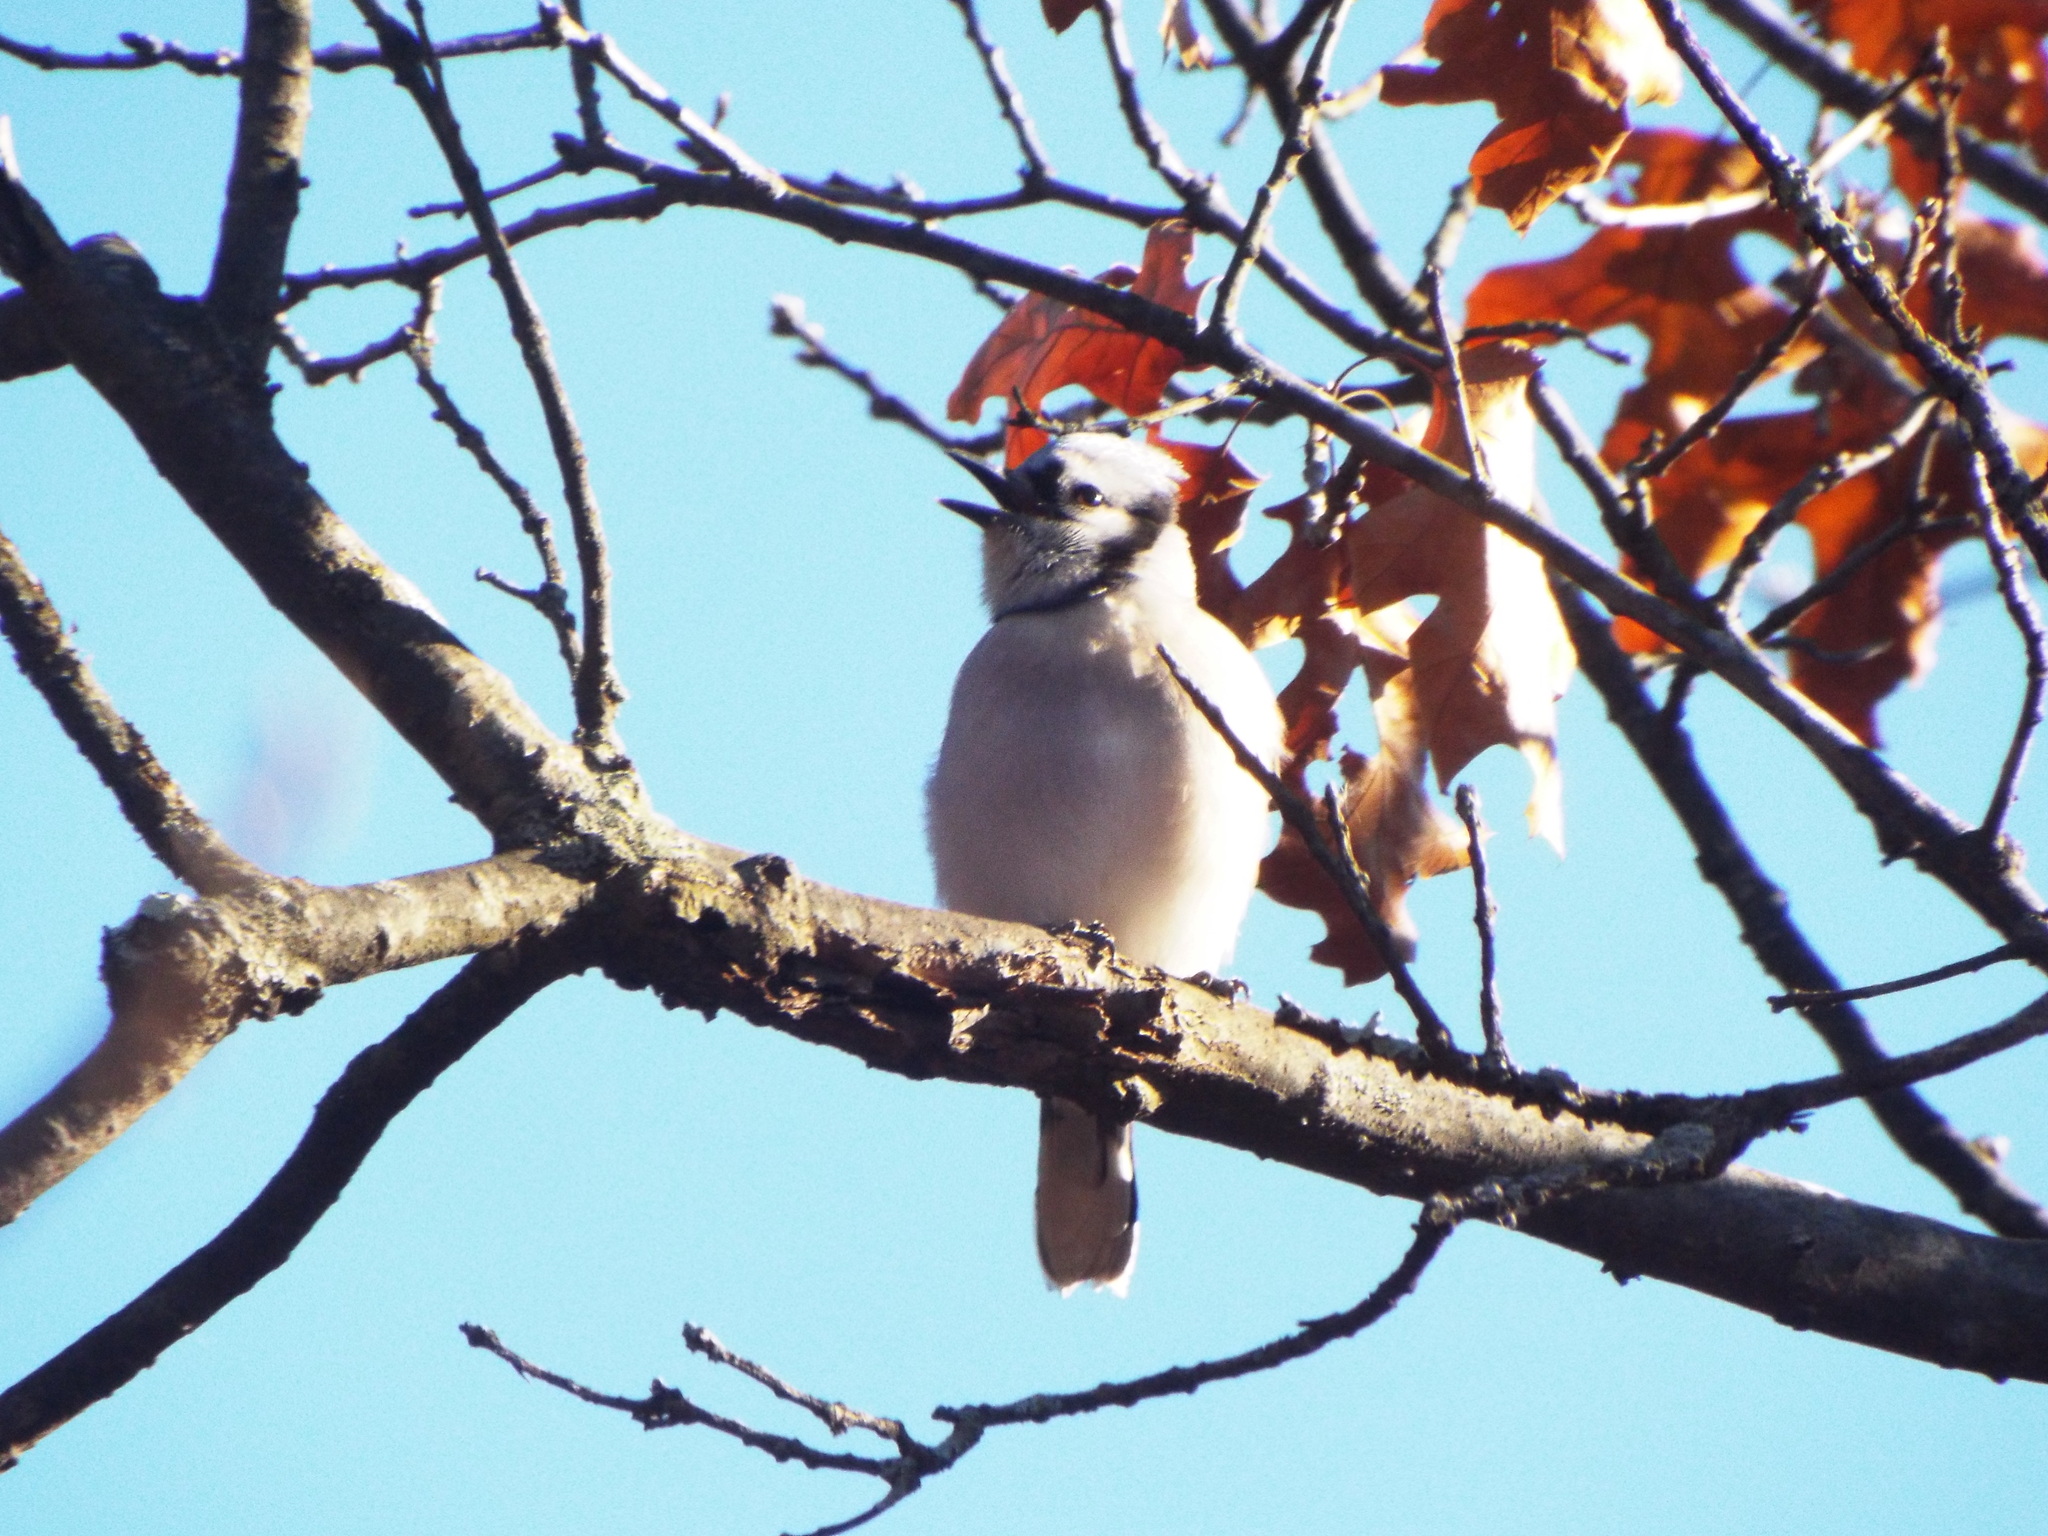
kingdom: Animalia
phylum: Chordata
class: Aves
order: Passeriformes
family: Corvidae
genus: Cyanocitta
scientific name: Cyanocitta cristata
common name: Blue jay
